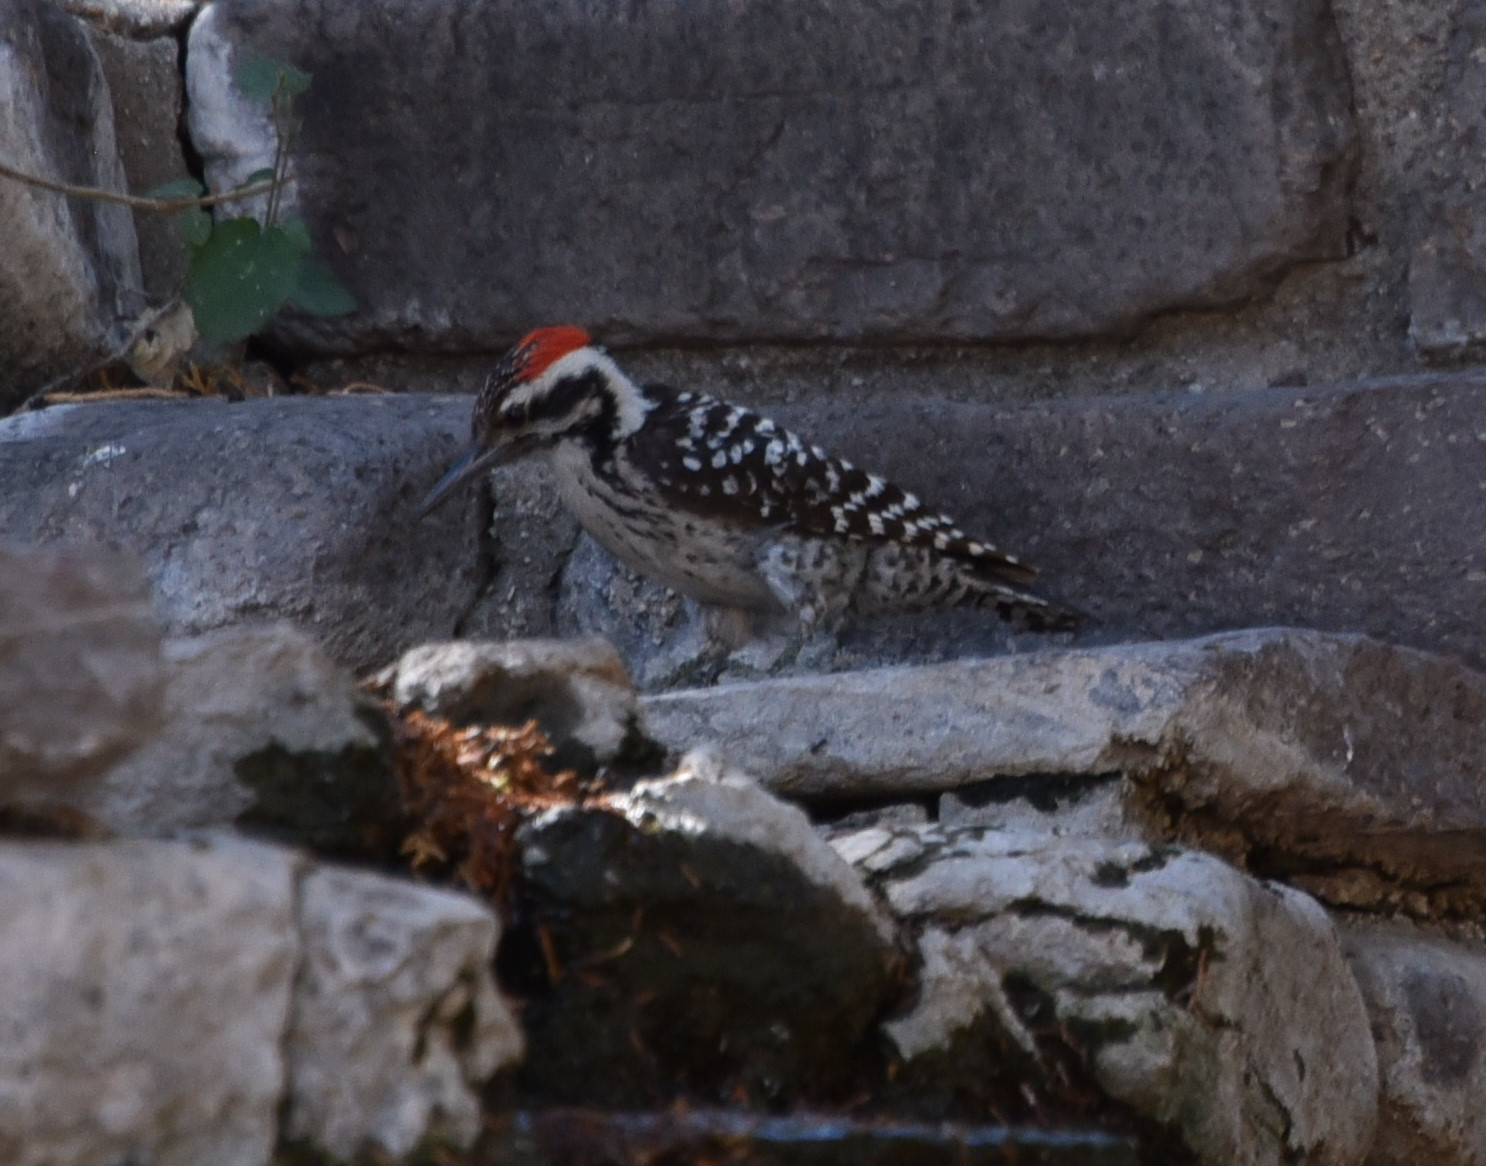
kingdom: Animalia
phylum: Chordata
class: Aves
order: Piciformes
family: Picidae
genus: Dryobates
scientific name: Dryobates scalaris
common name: Ladder-backed woodpecker
